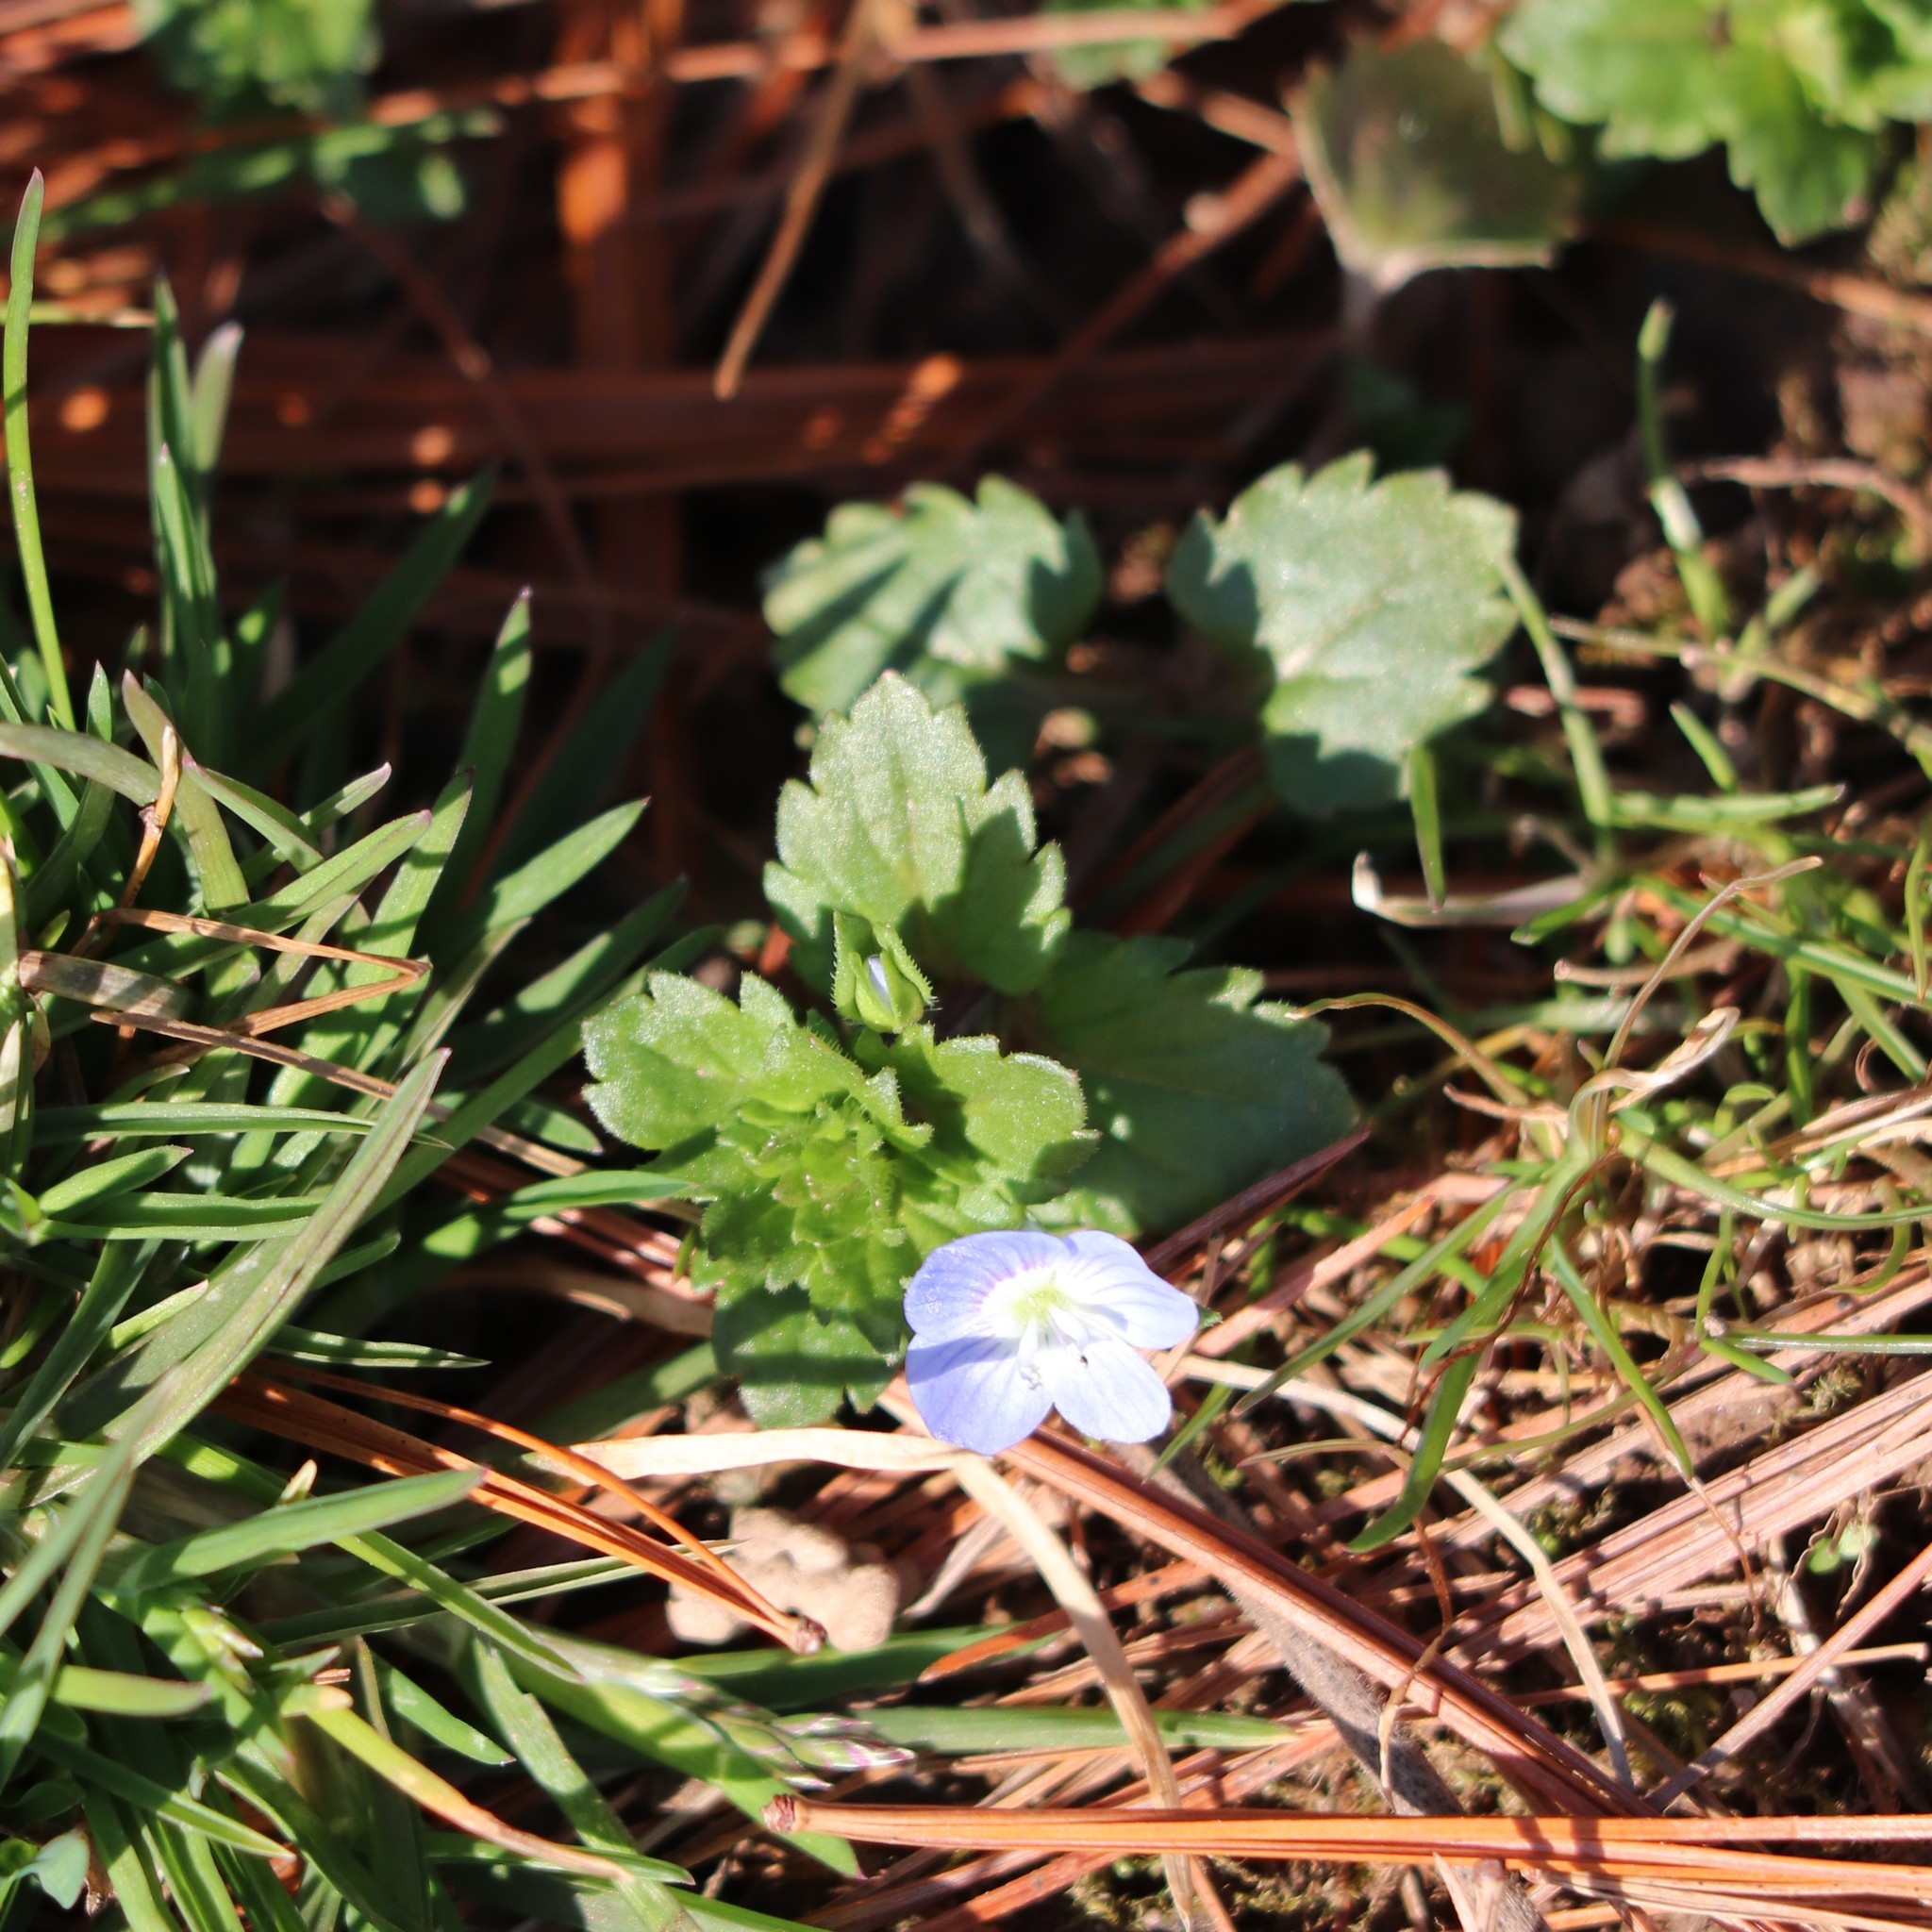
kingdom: Plantae
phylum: Tracheophyta
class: Magnoliopsida
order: Lamiales
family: Plantaginaceae
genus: Veronica
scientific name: Veronica persica
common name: Common field-speedwell
